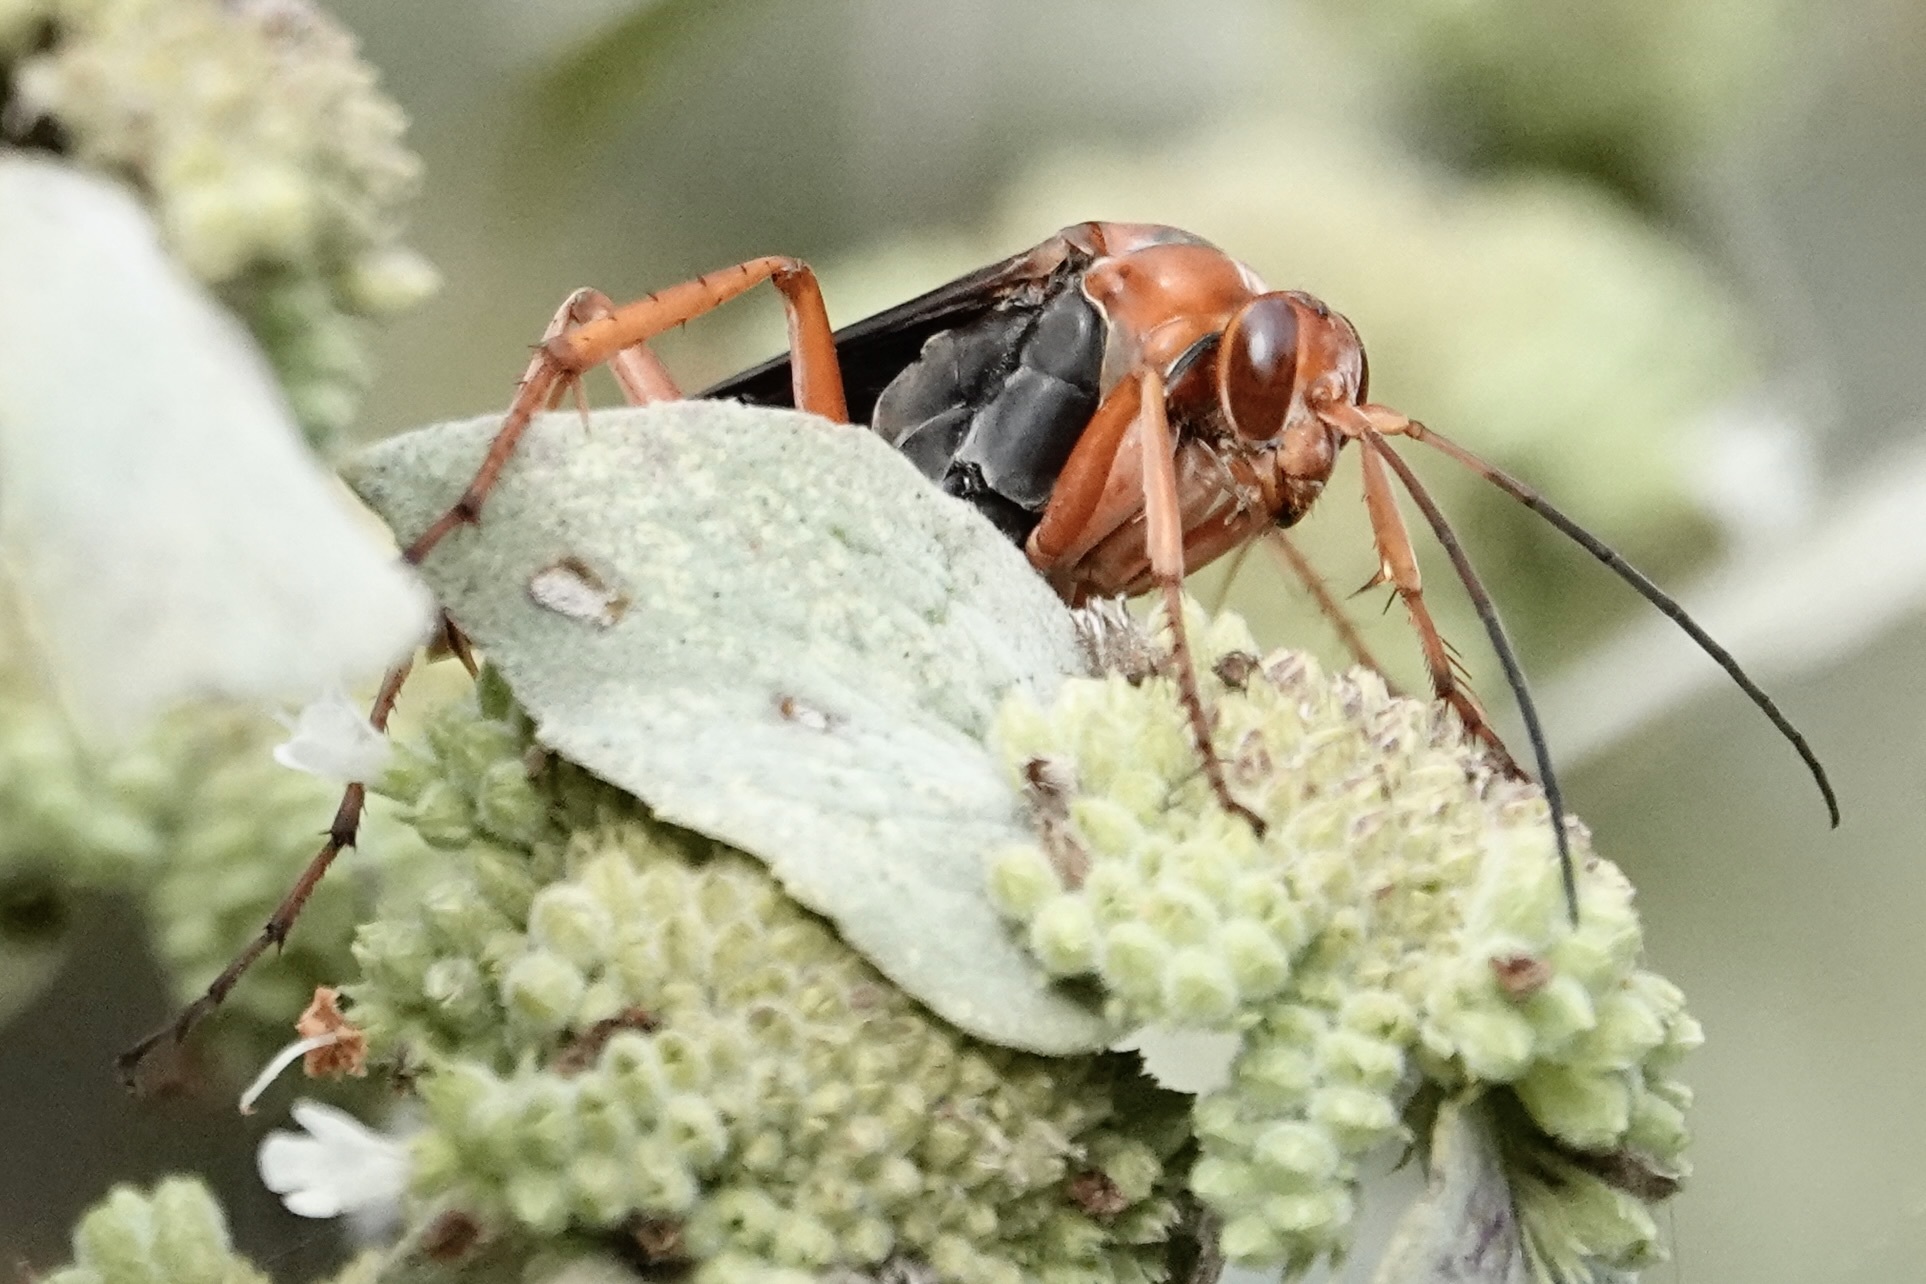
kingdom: Animalia
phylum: Arthropoda
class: Insecta
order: Hymenoptera
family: Pompilidae
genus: Tachypompilus
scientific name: Tachypompilus ferrugineus
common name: Rusty spider wasp
